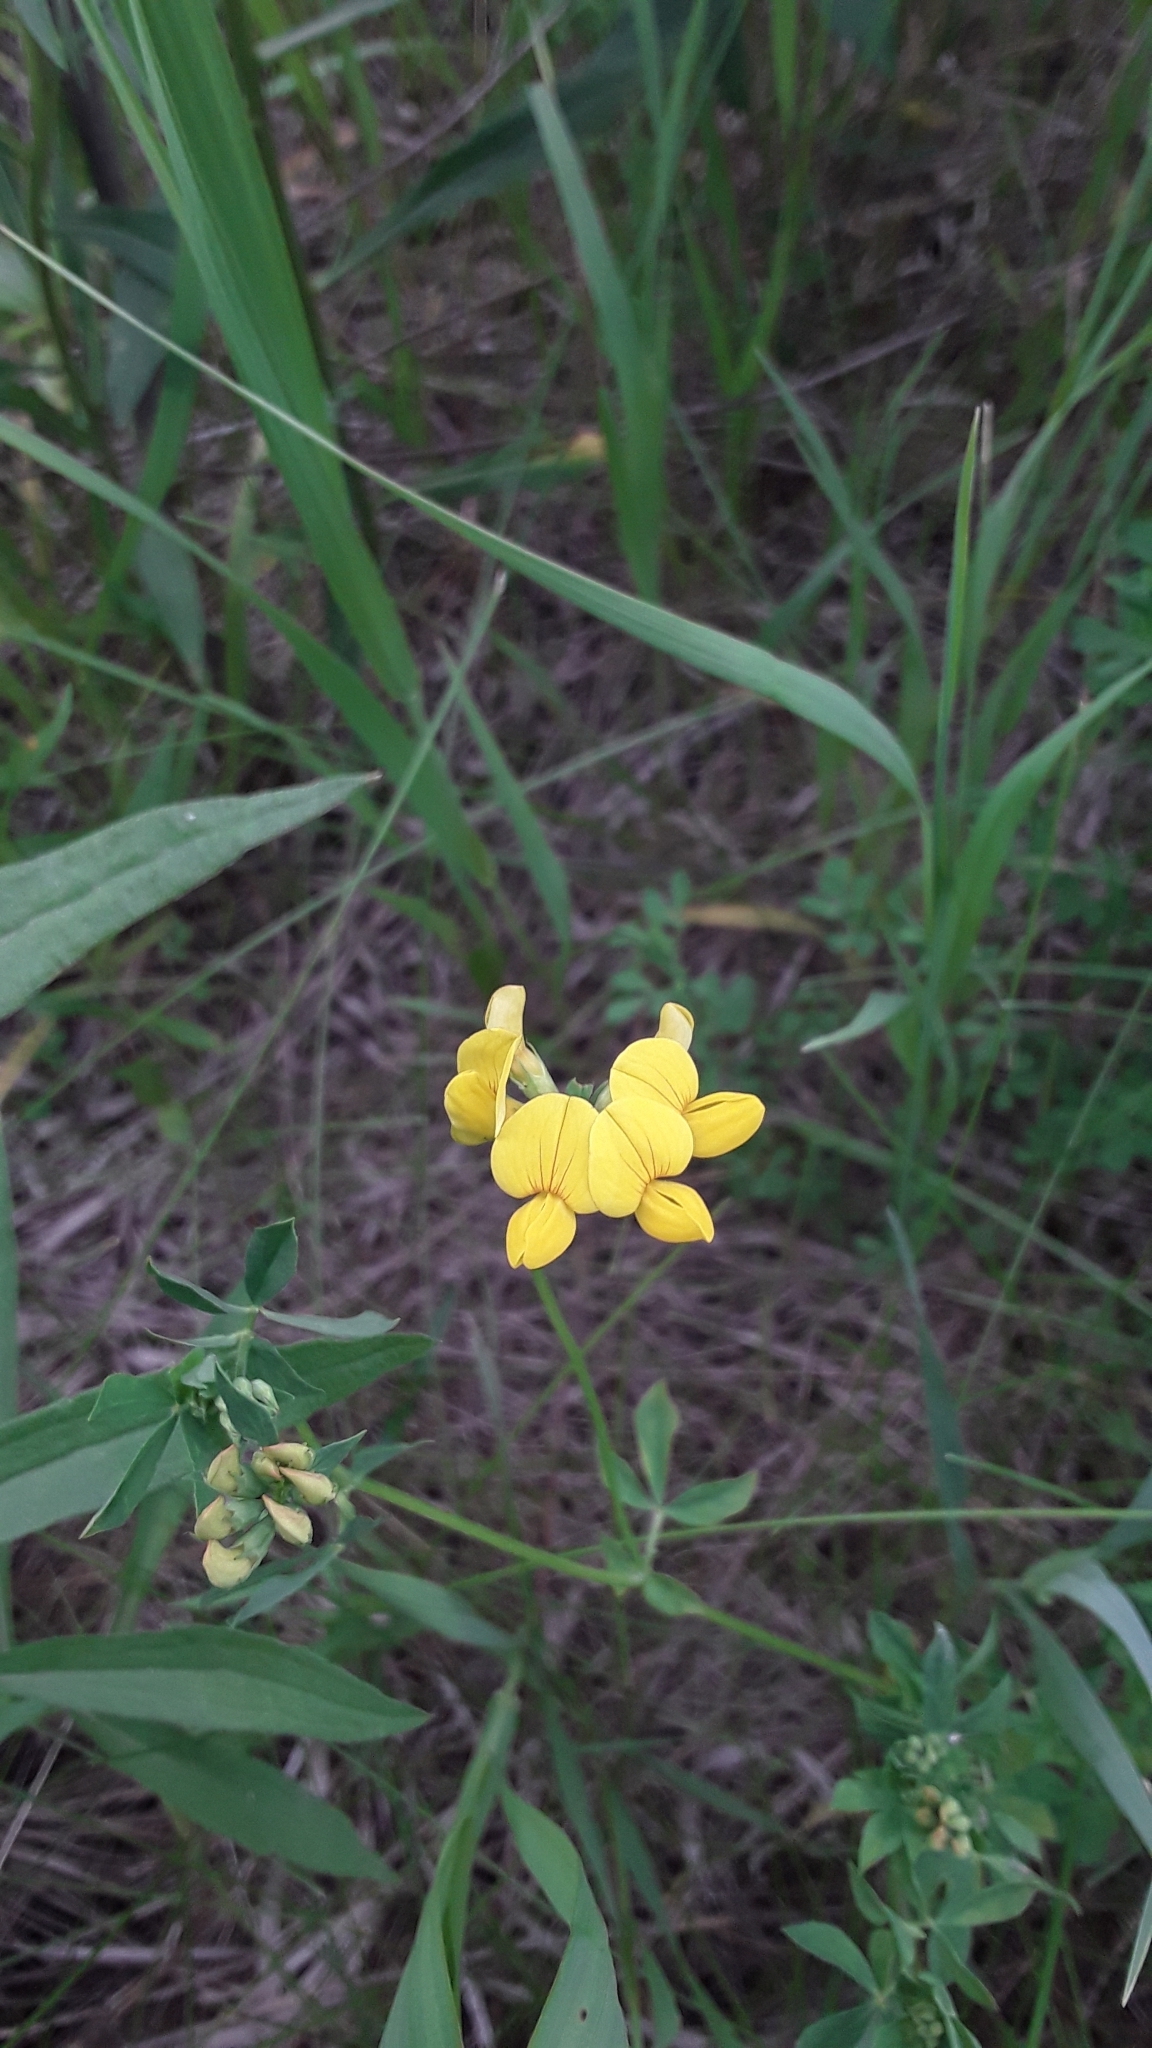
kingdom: Plantae
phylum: Tracheophyta
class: Magnoliopsida
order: Fabales
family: Fabaceae
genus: Lotus
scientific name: Lotus corniculatus
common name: Common bird's-foot-trefoil
